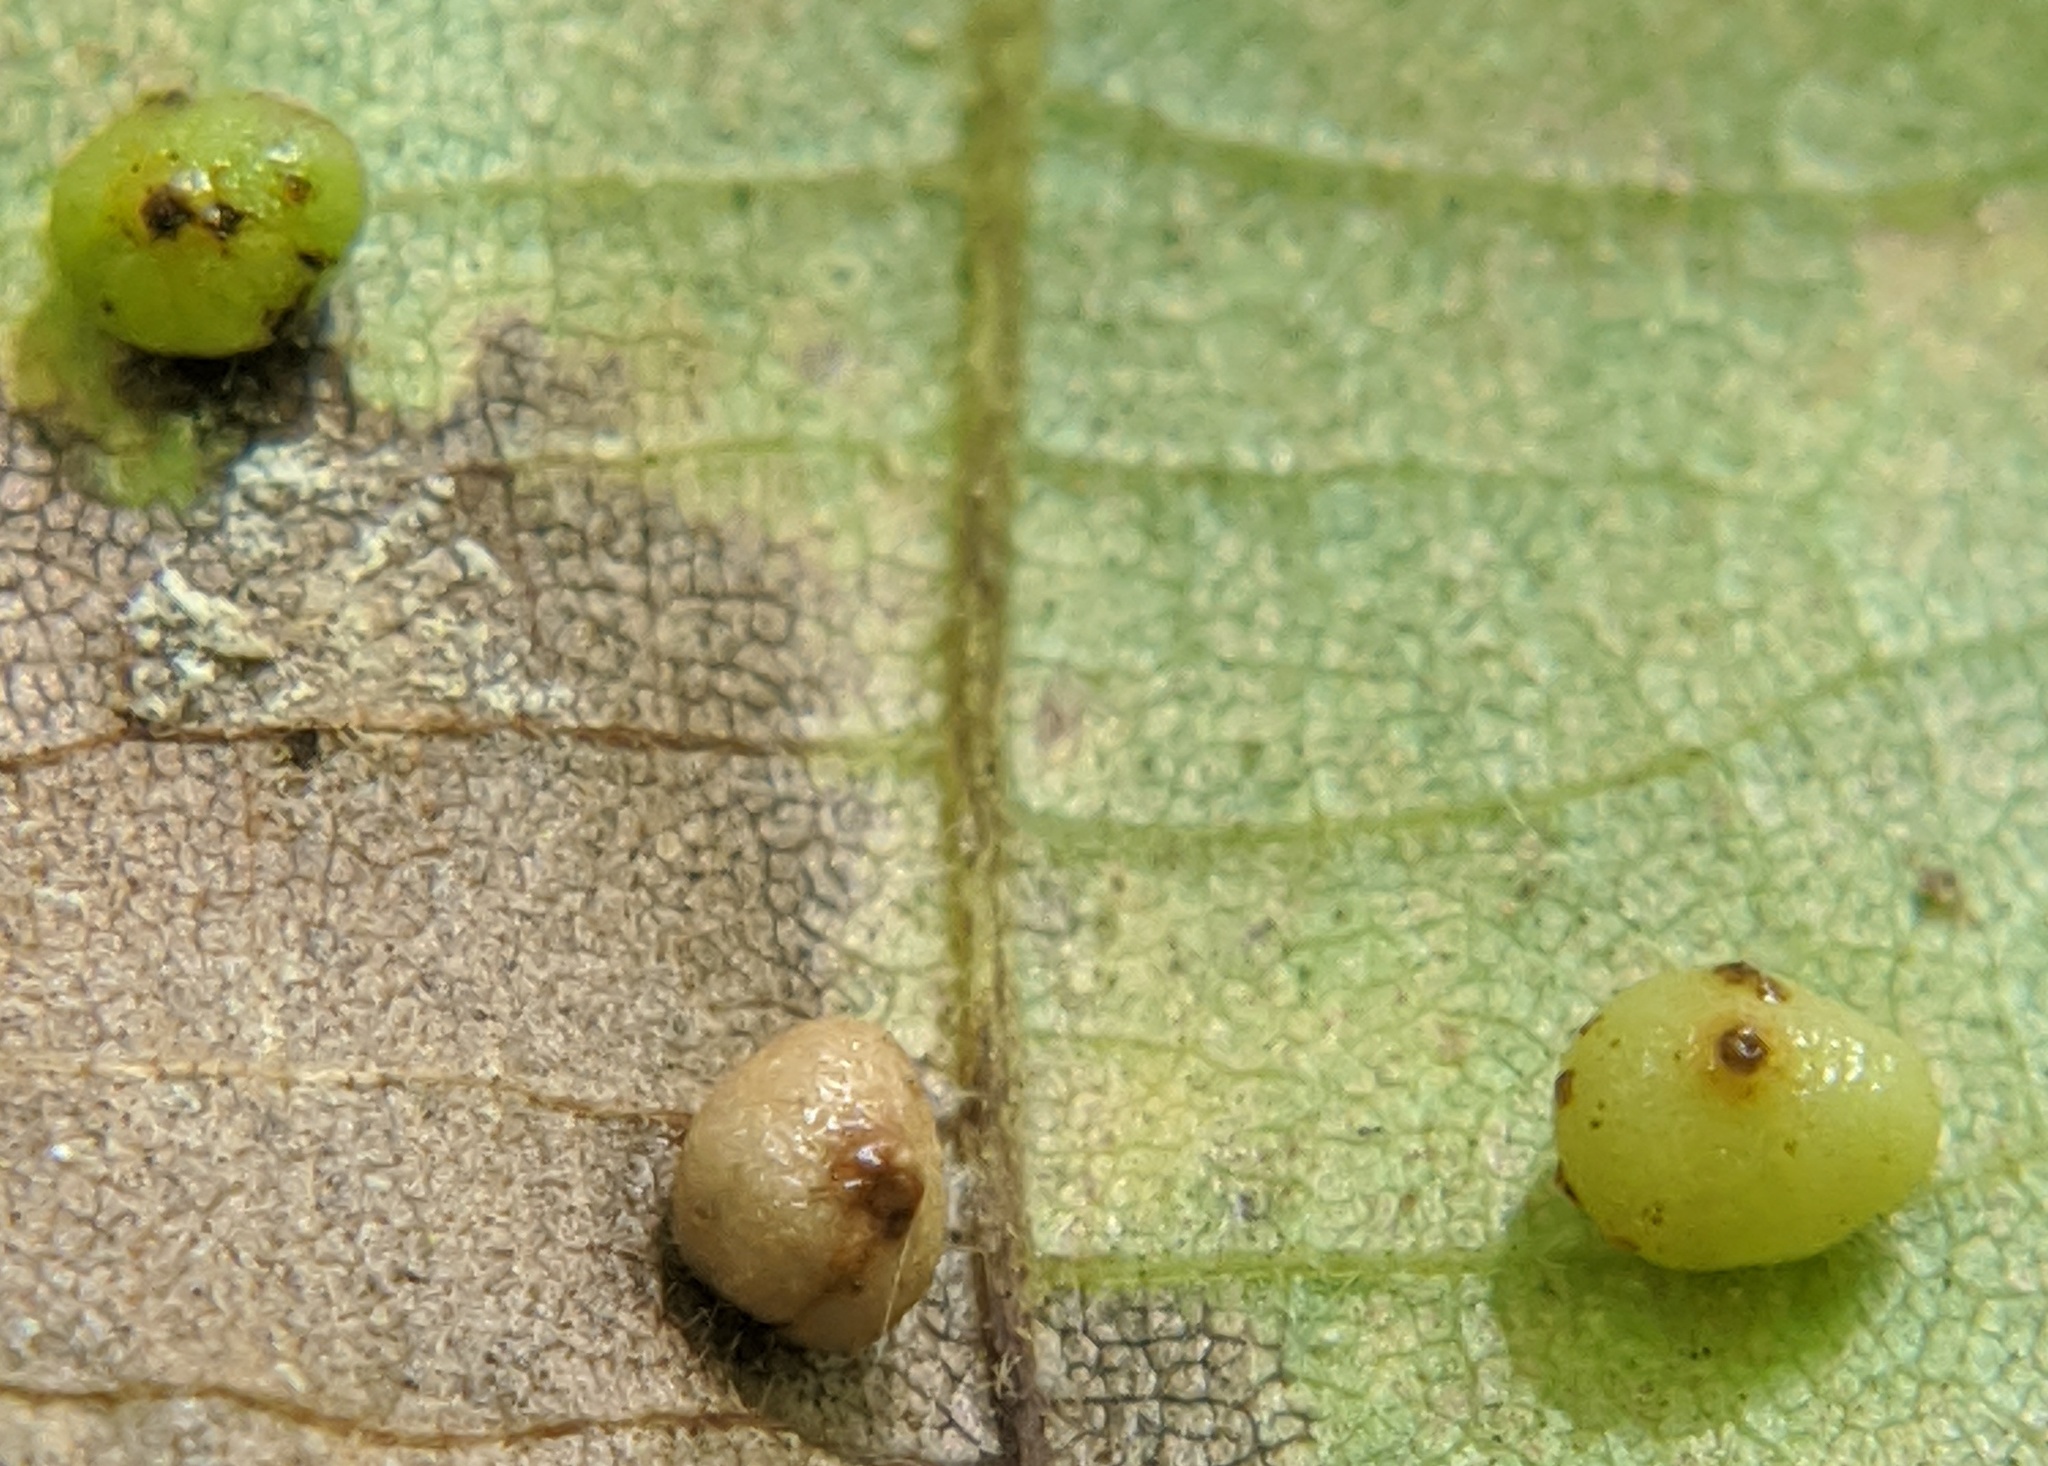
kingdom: Animalia
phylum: Arthropoda
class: Insecta
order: Diptera
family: Cecidomyiidae
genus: Caryomyia
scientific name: Caryomyia caryae
